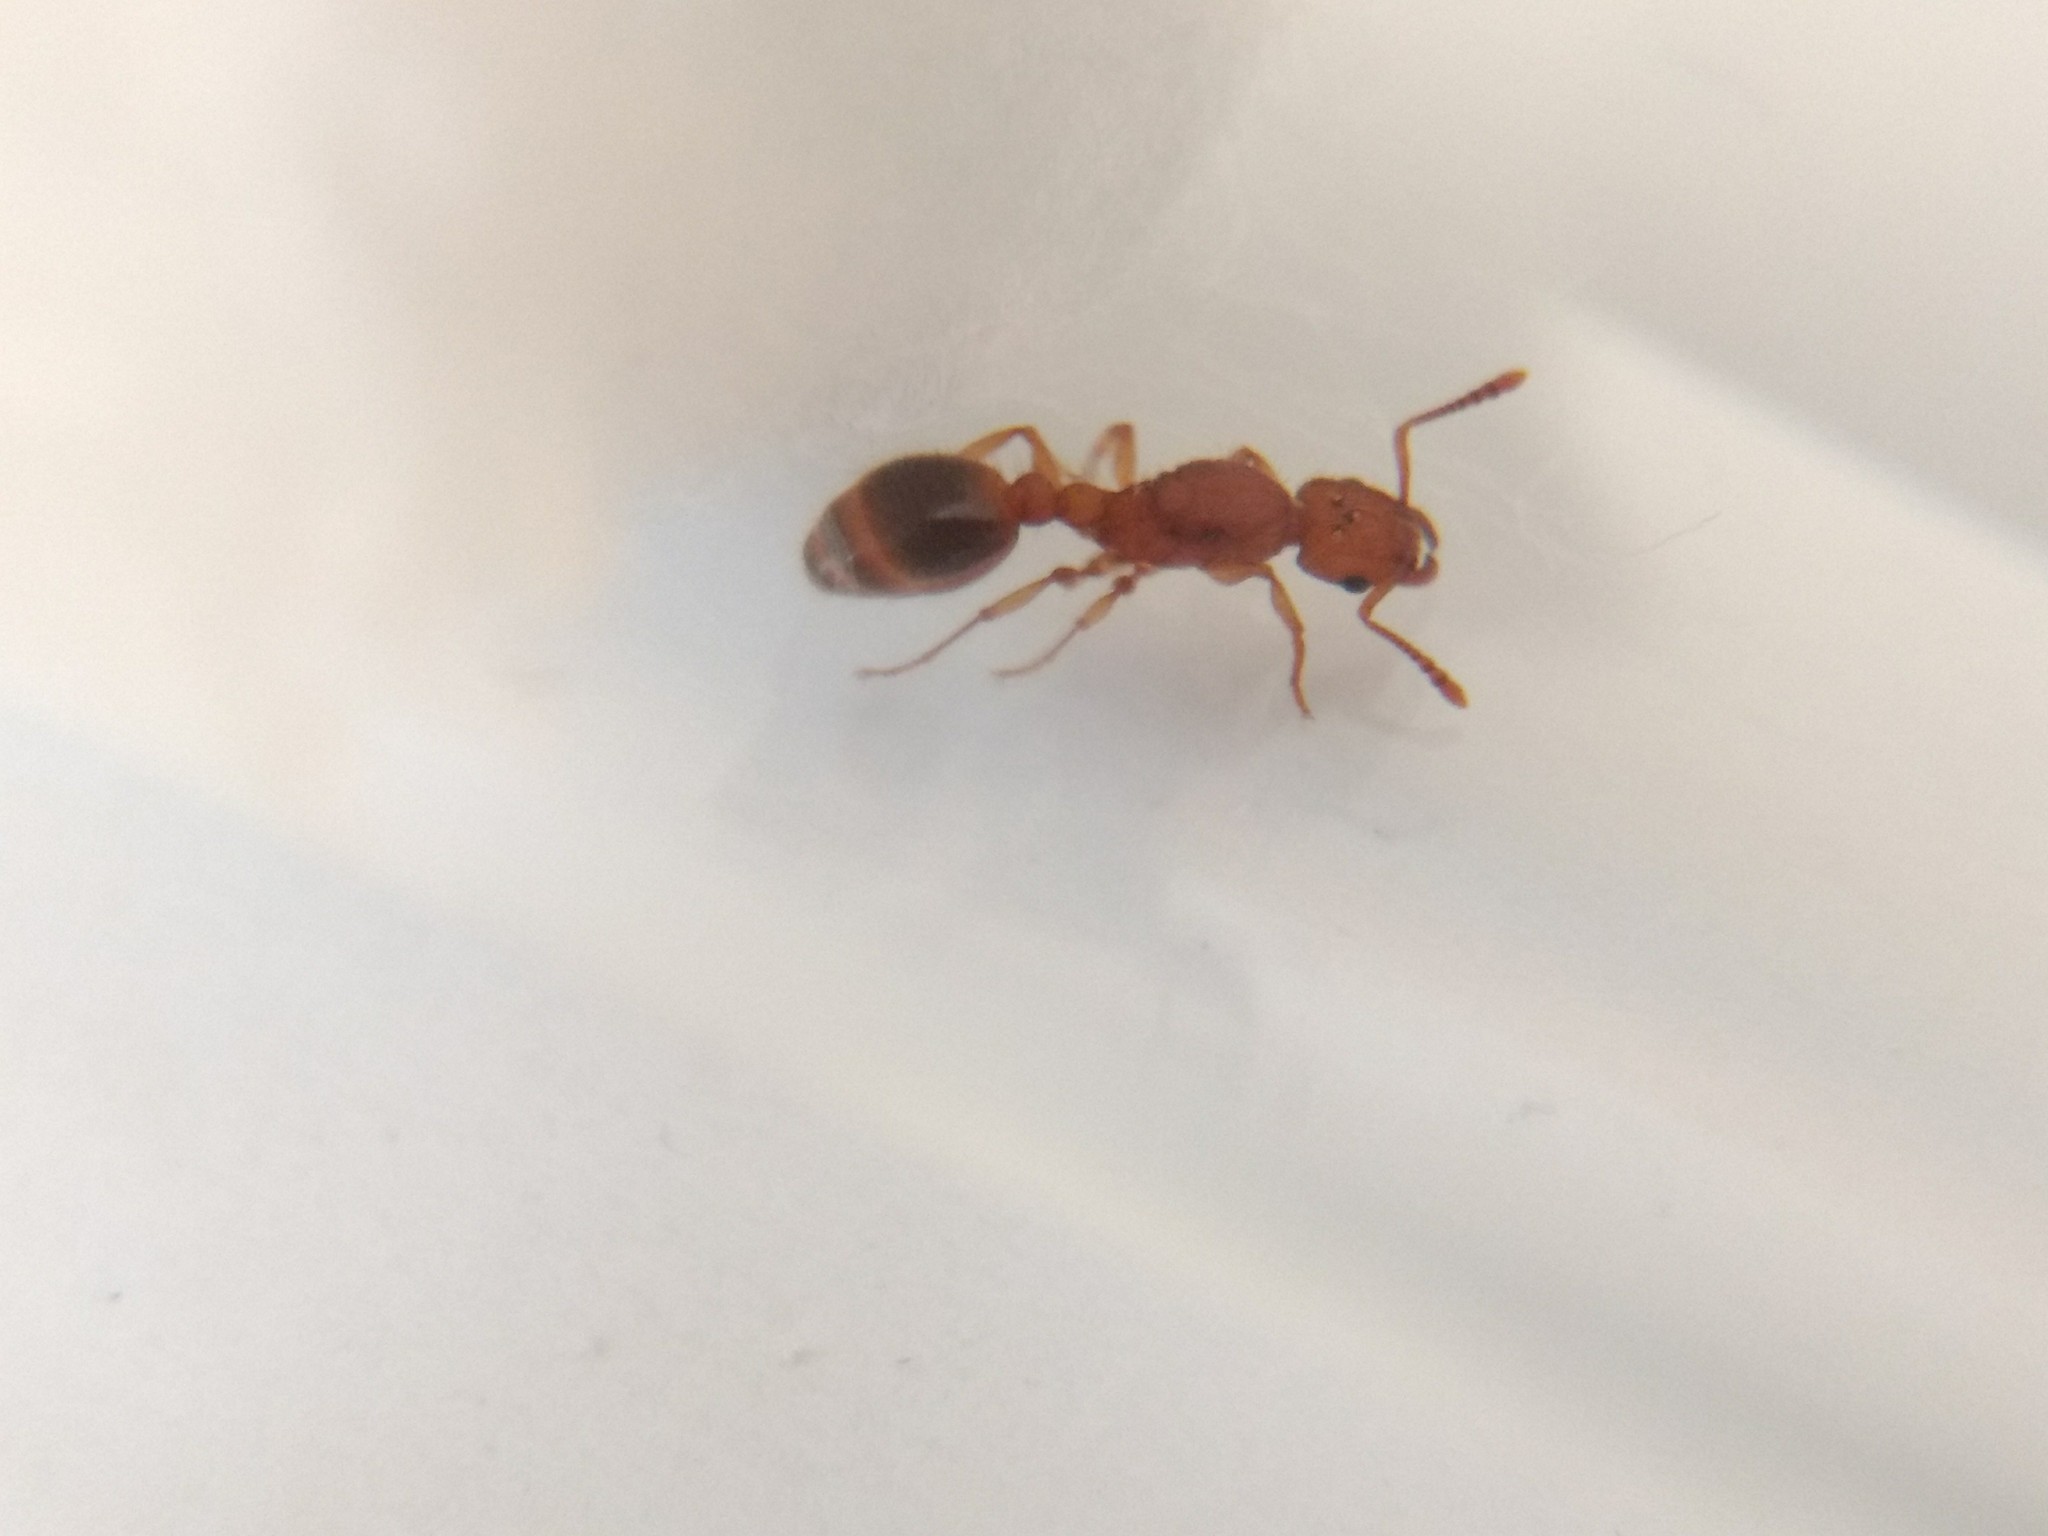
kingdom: Animalia
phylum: Arthropoda
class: Insecta
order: Hymenoptera
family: Formicidae
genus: Tetramorium
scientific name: Tetramorium bicarinatum
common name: Guinea ant
